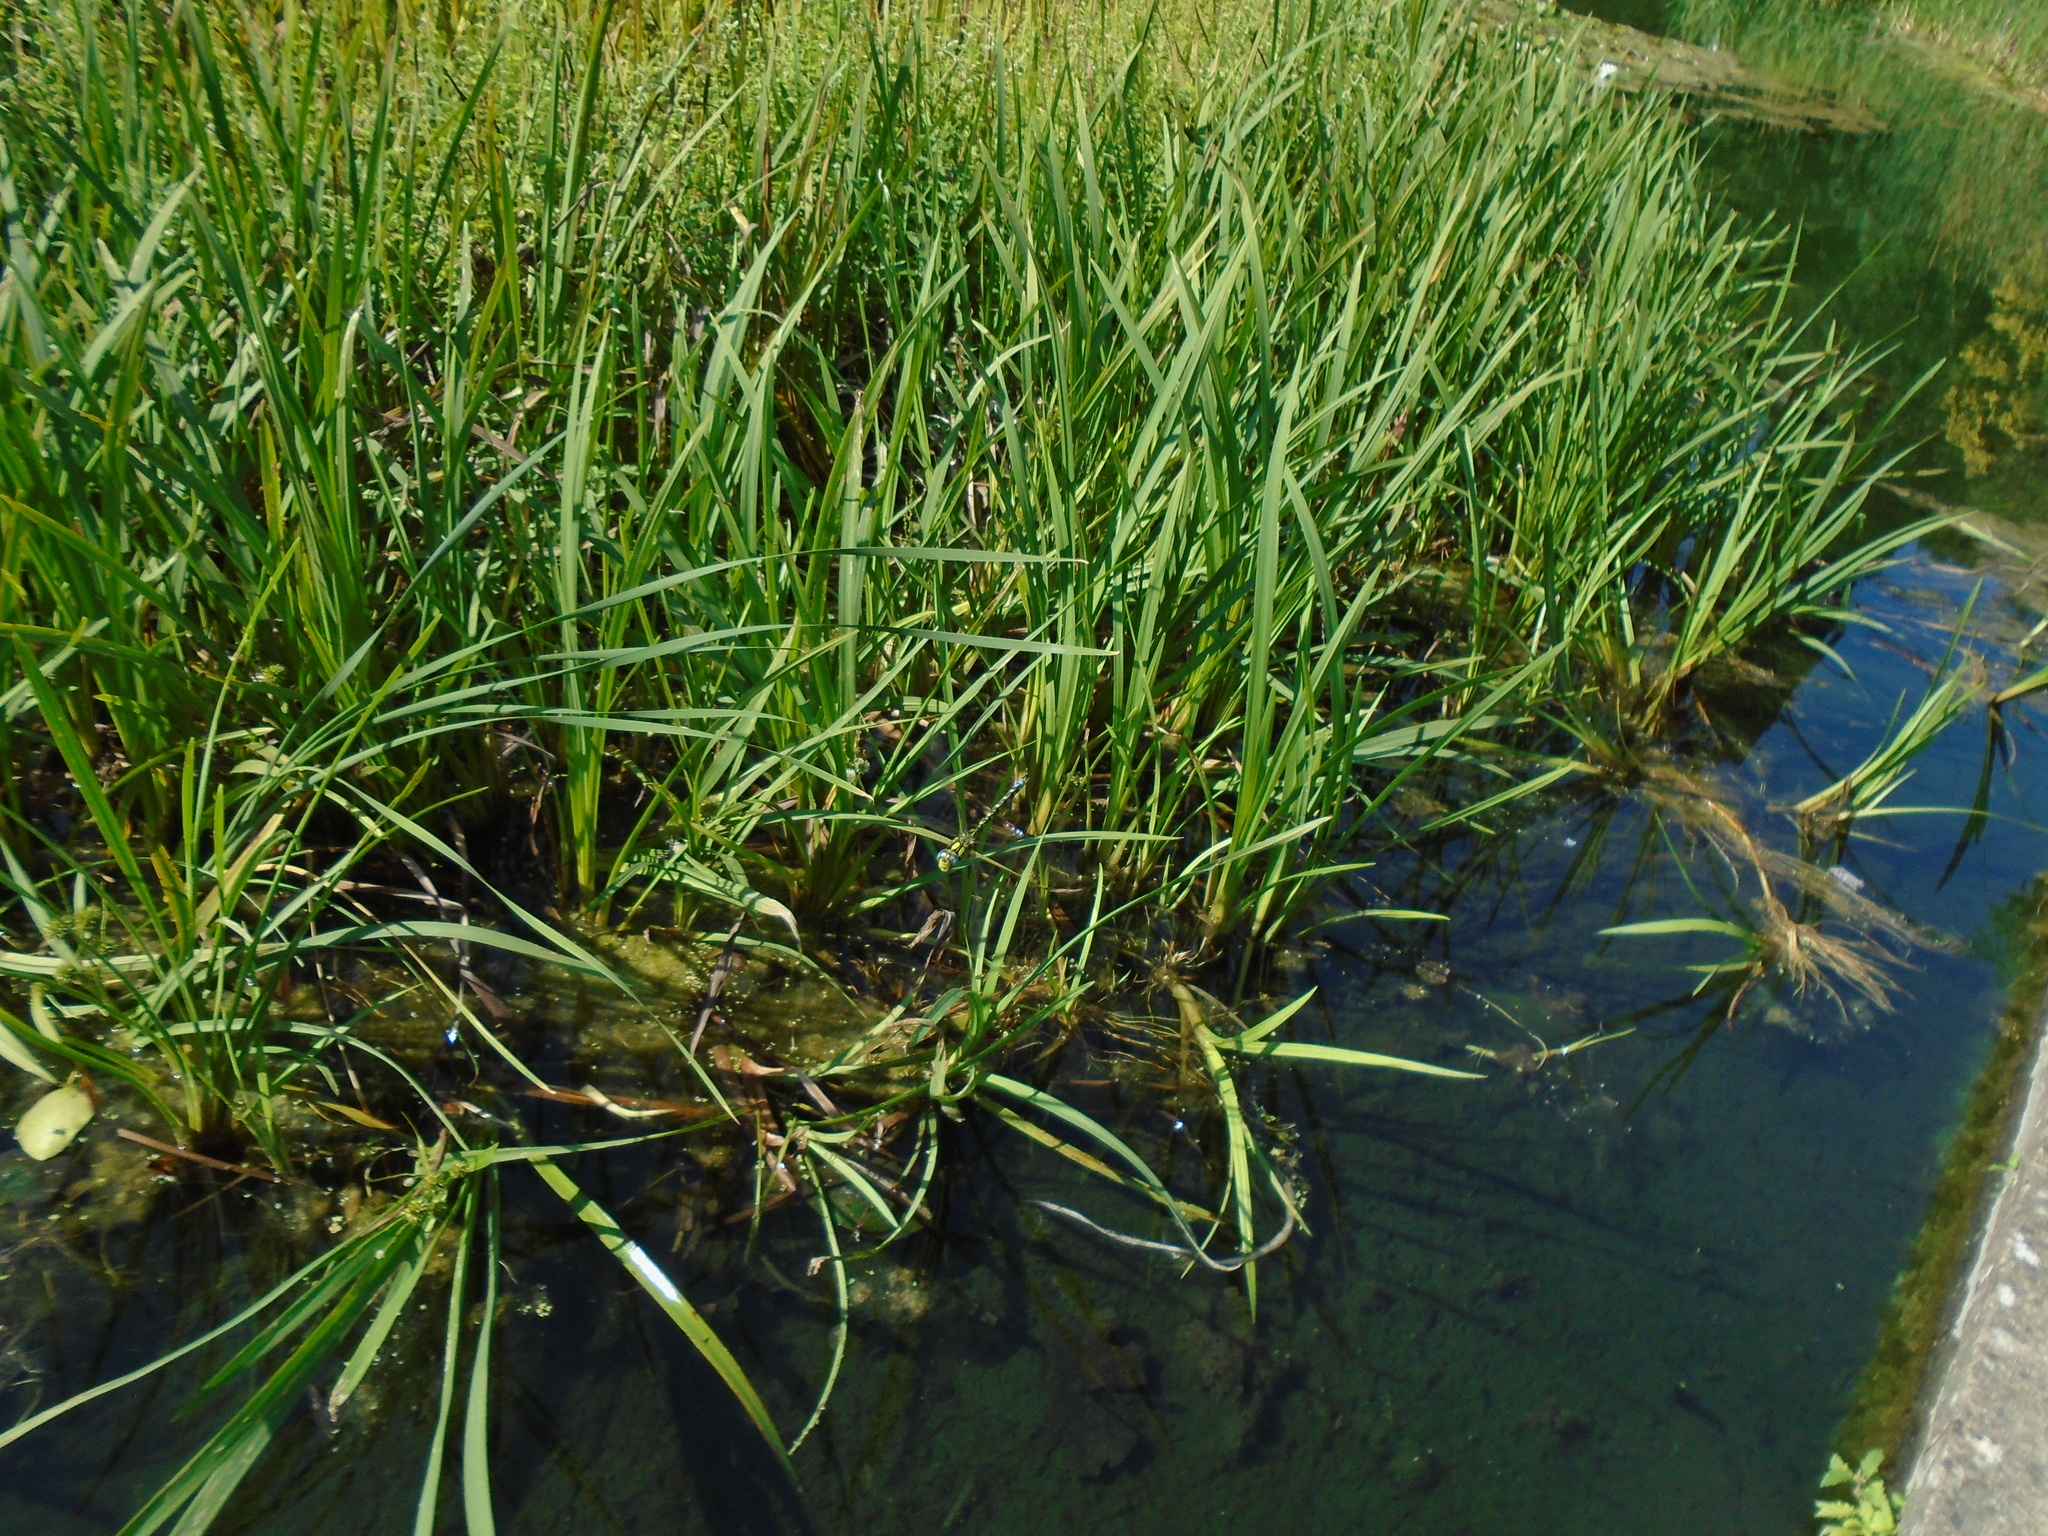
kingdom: Animalia
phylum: Arthropoda
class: Insecta
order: Odonata
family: Aeshnidae
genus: Aeshna
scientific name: Aeshna cyanea
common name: Southern hawker
